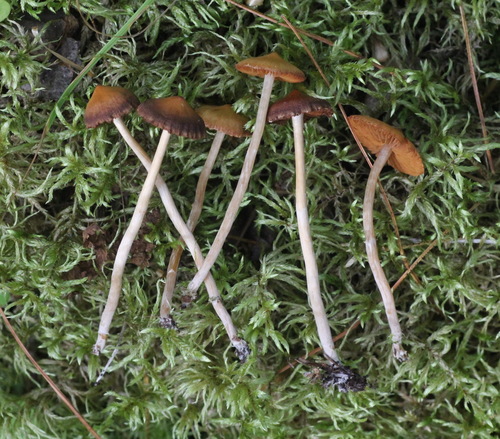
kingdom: Fungi
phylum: Basidiomycota
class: Agaricomycetes
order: Agaricales
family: Cortinariaceae
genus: Cortinarius
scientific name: Cortinarius parvannulatus
